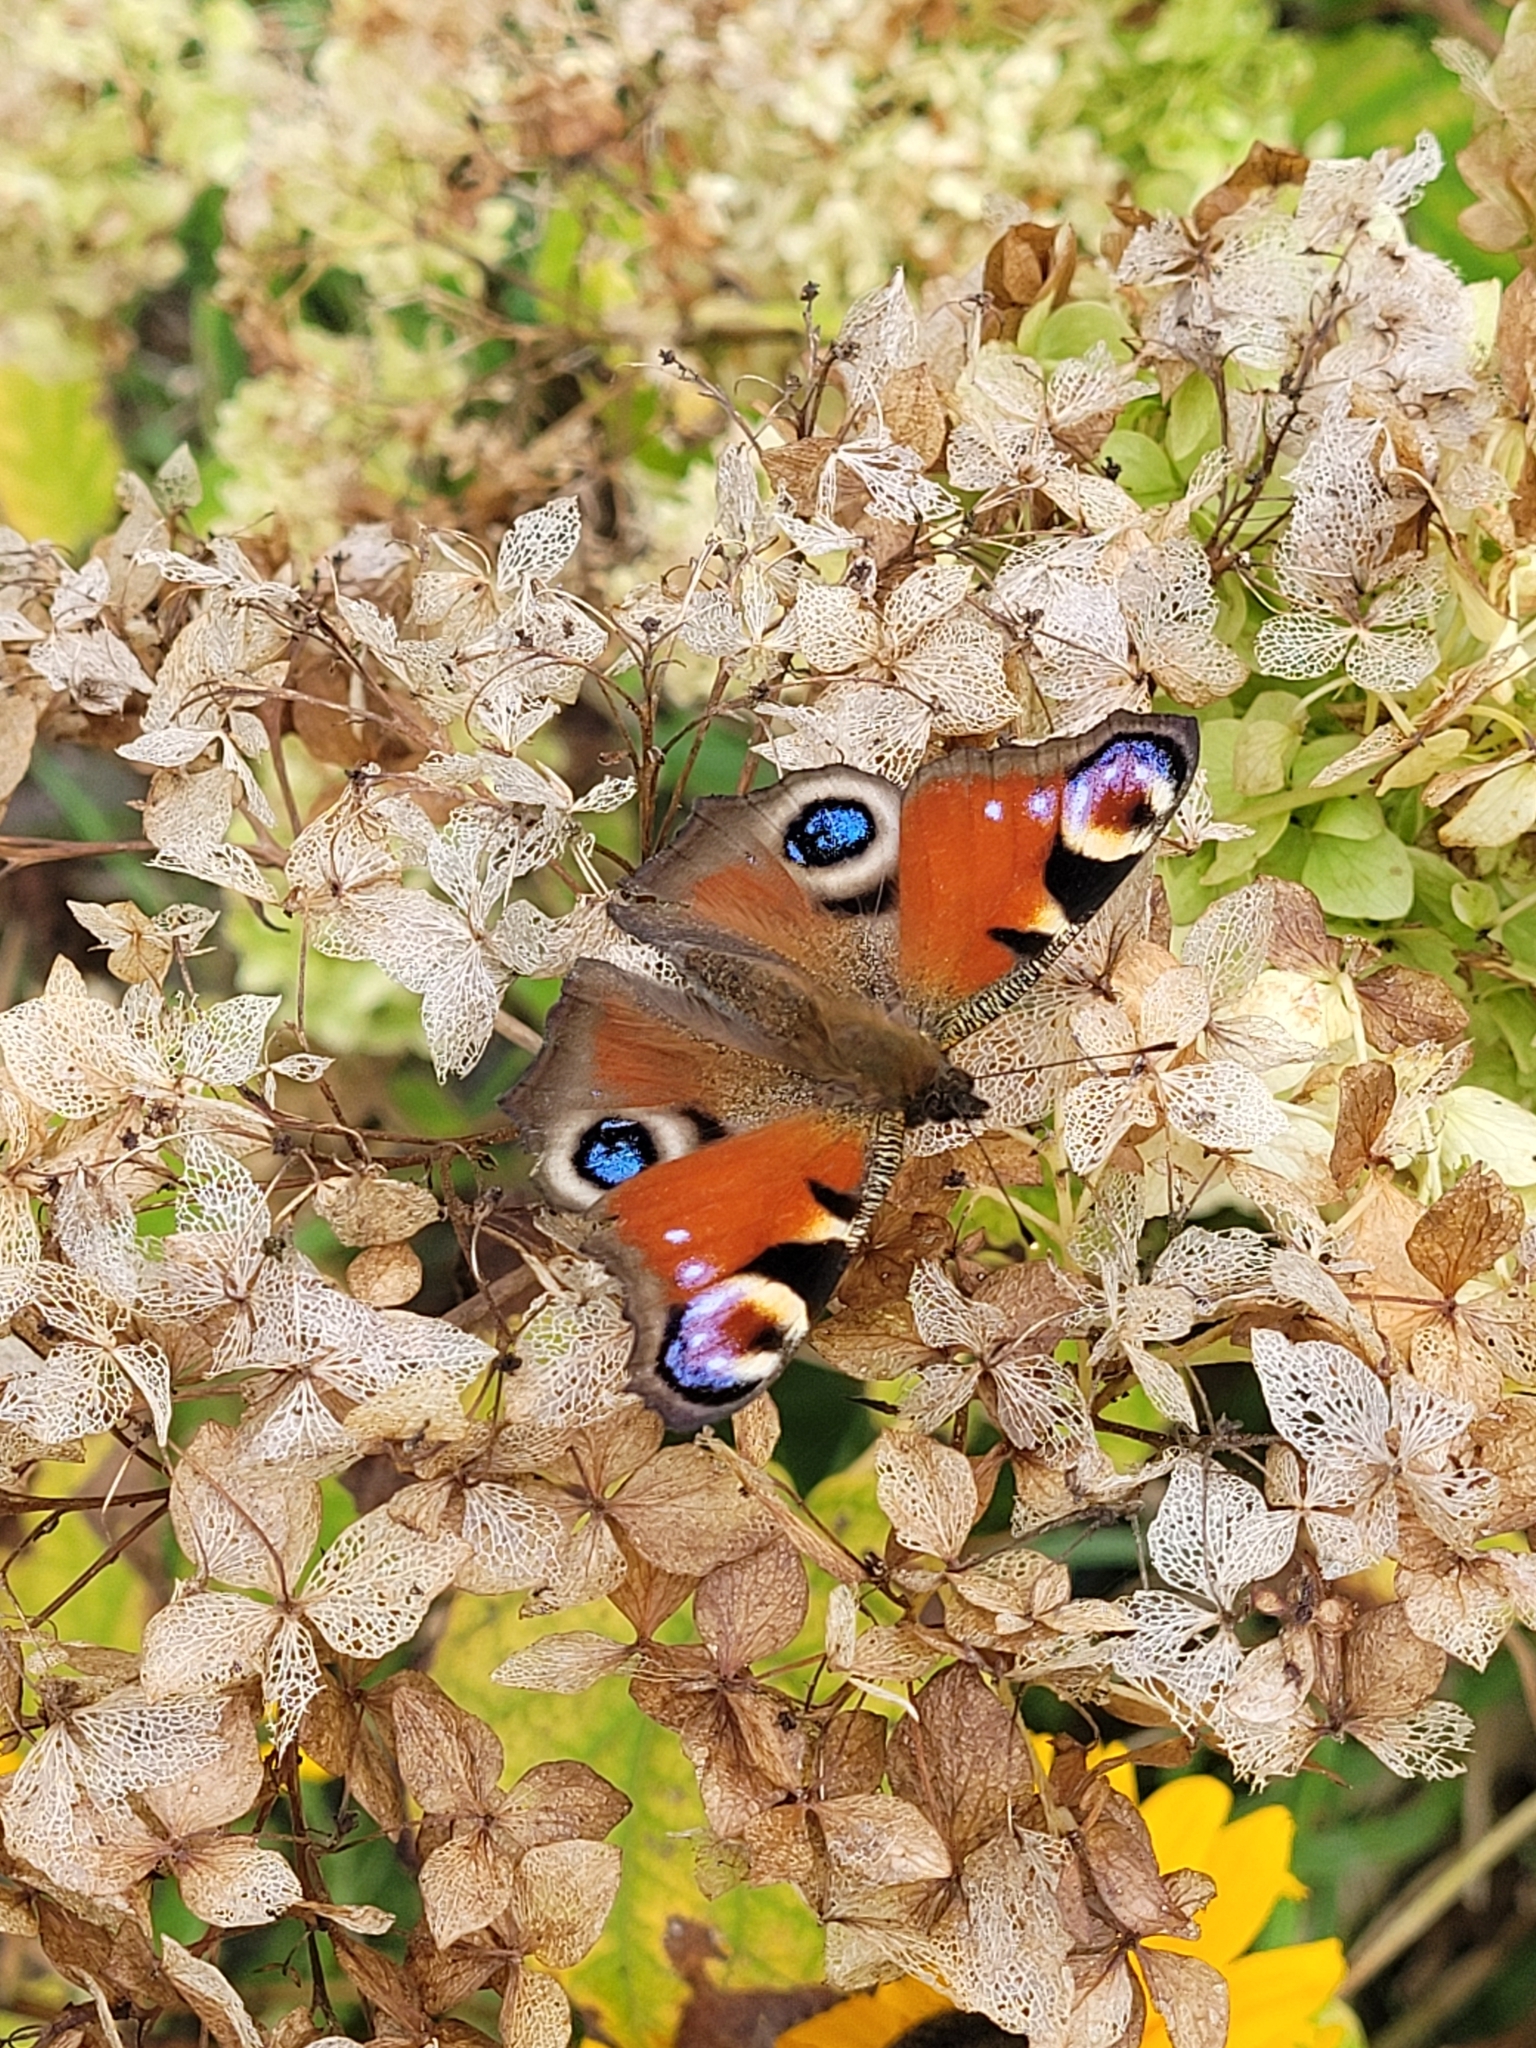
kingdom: Animalia
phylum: Arthropoda
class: Insecta
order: Lepidoptera
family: Nymphalidae
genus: Aglais
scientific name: Aglais io
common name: Peacock
